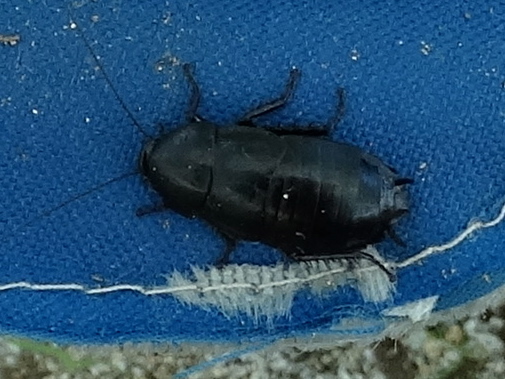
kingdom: Animalia
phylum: Arthropoda
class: Insecta
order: Blattodea
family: Ectobiidae
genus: Nyctibora
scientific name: Nyctibora tetrasticta
